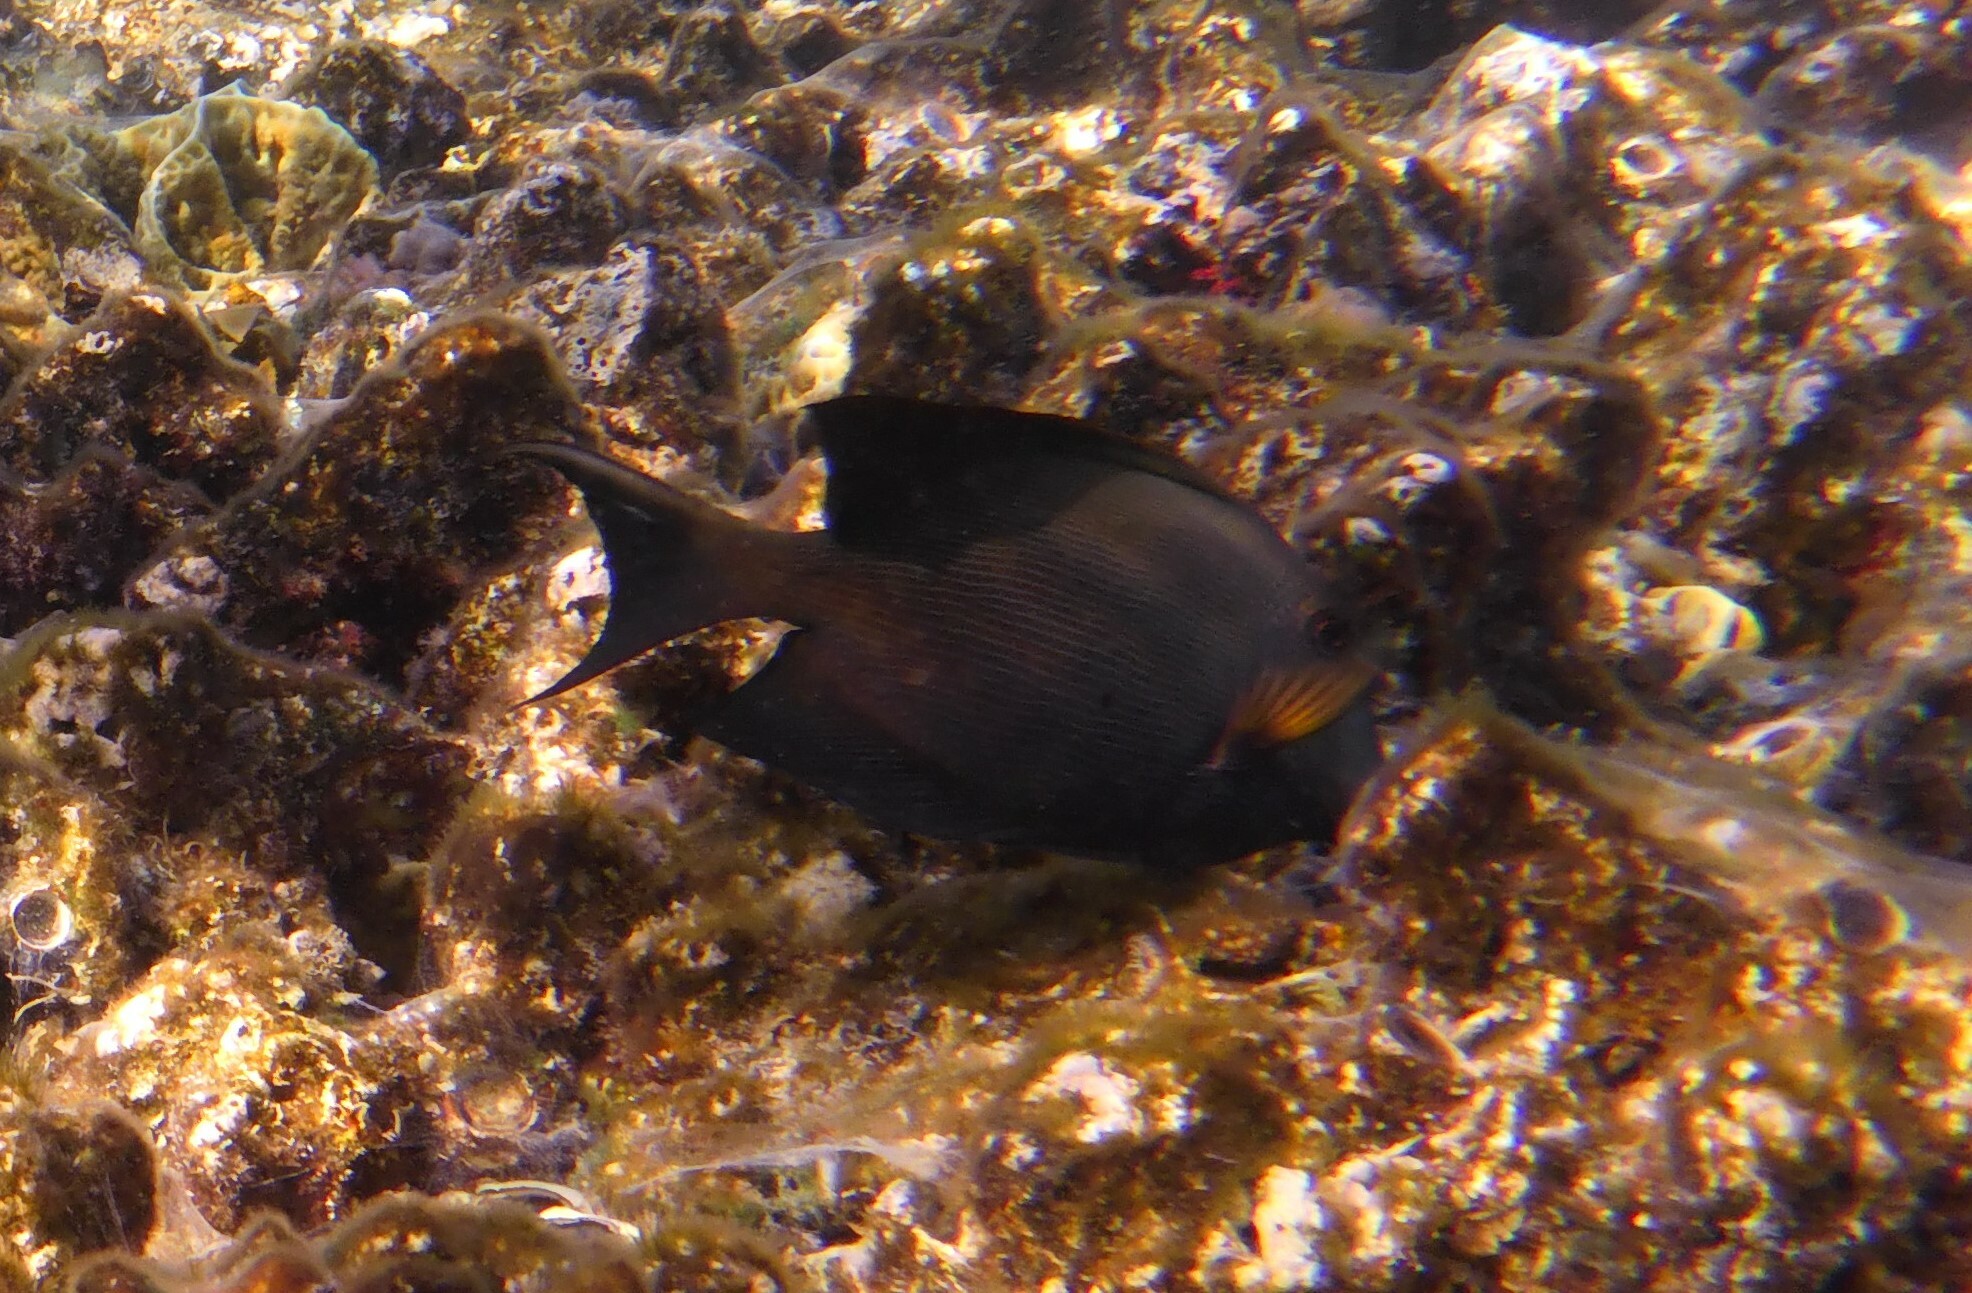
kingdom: Animalia
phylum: Chordata
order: Perciformes
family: Acanthuridae
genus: Ctenochaetus
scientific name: Ctenochaetus striatus
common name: Bristle-toothed surgeonfish
